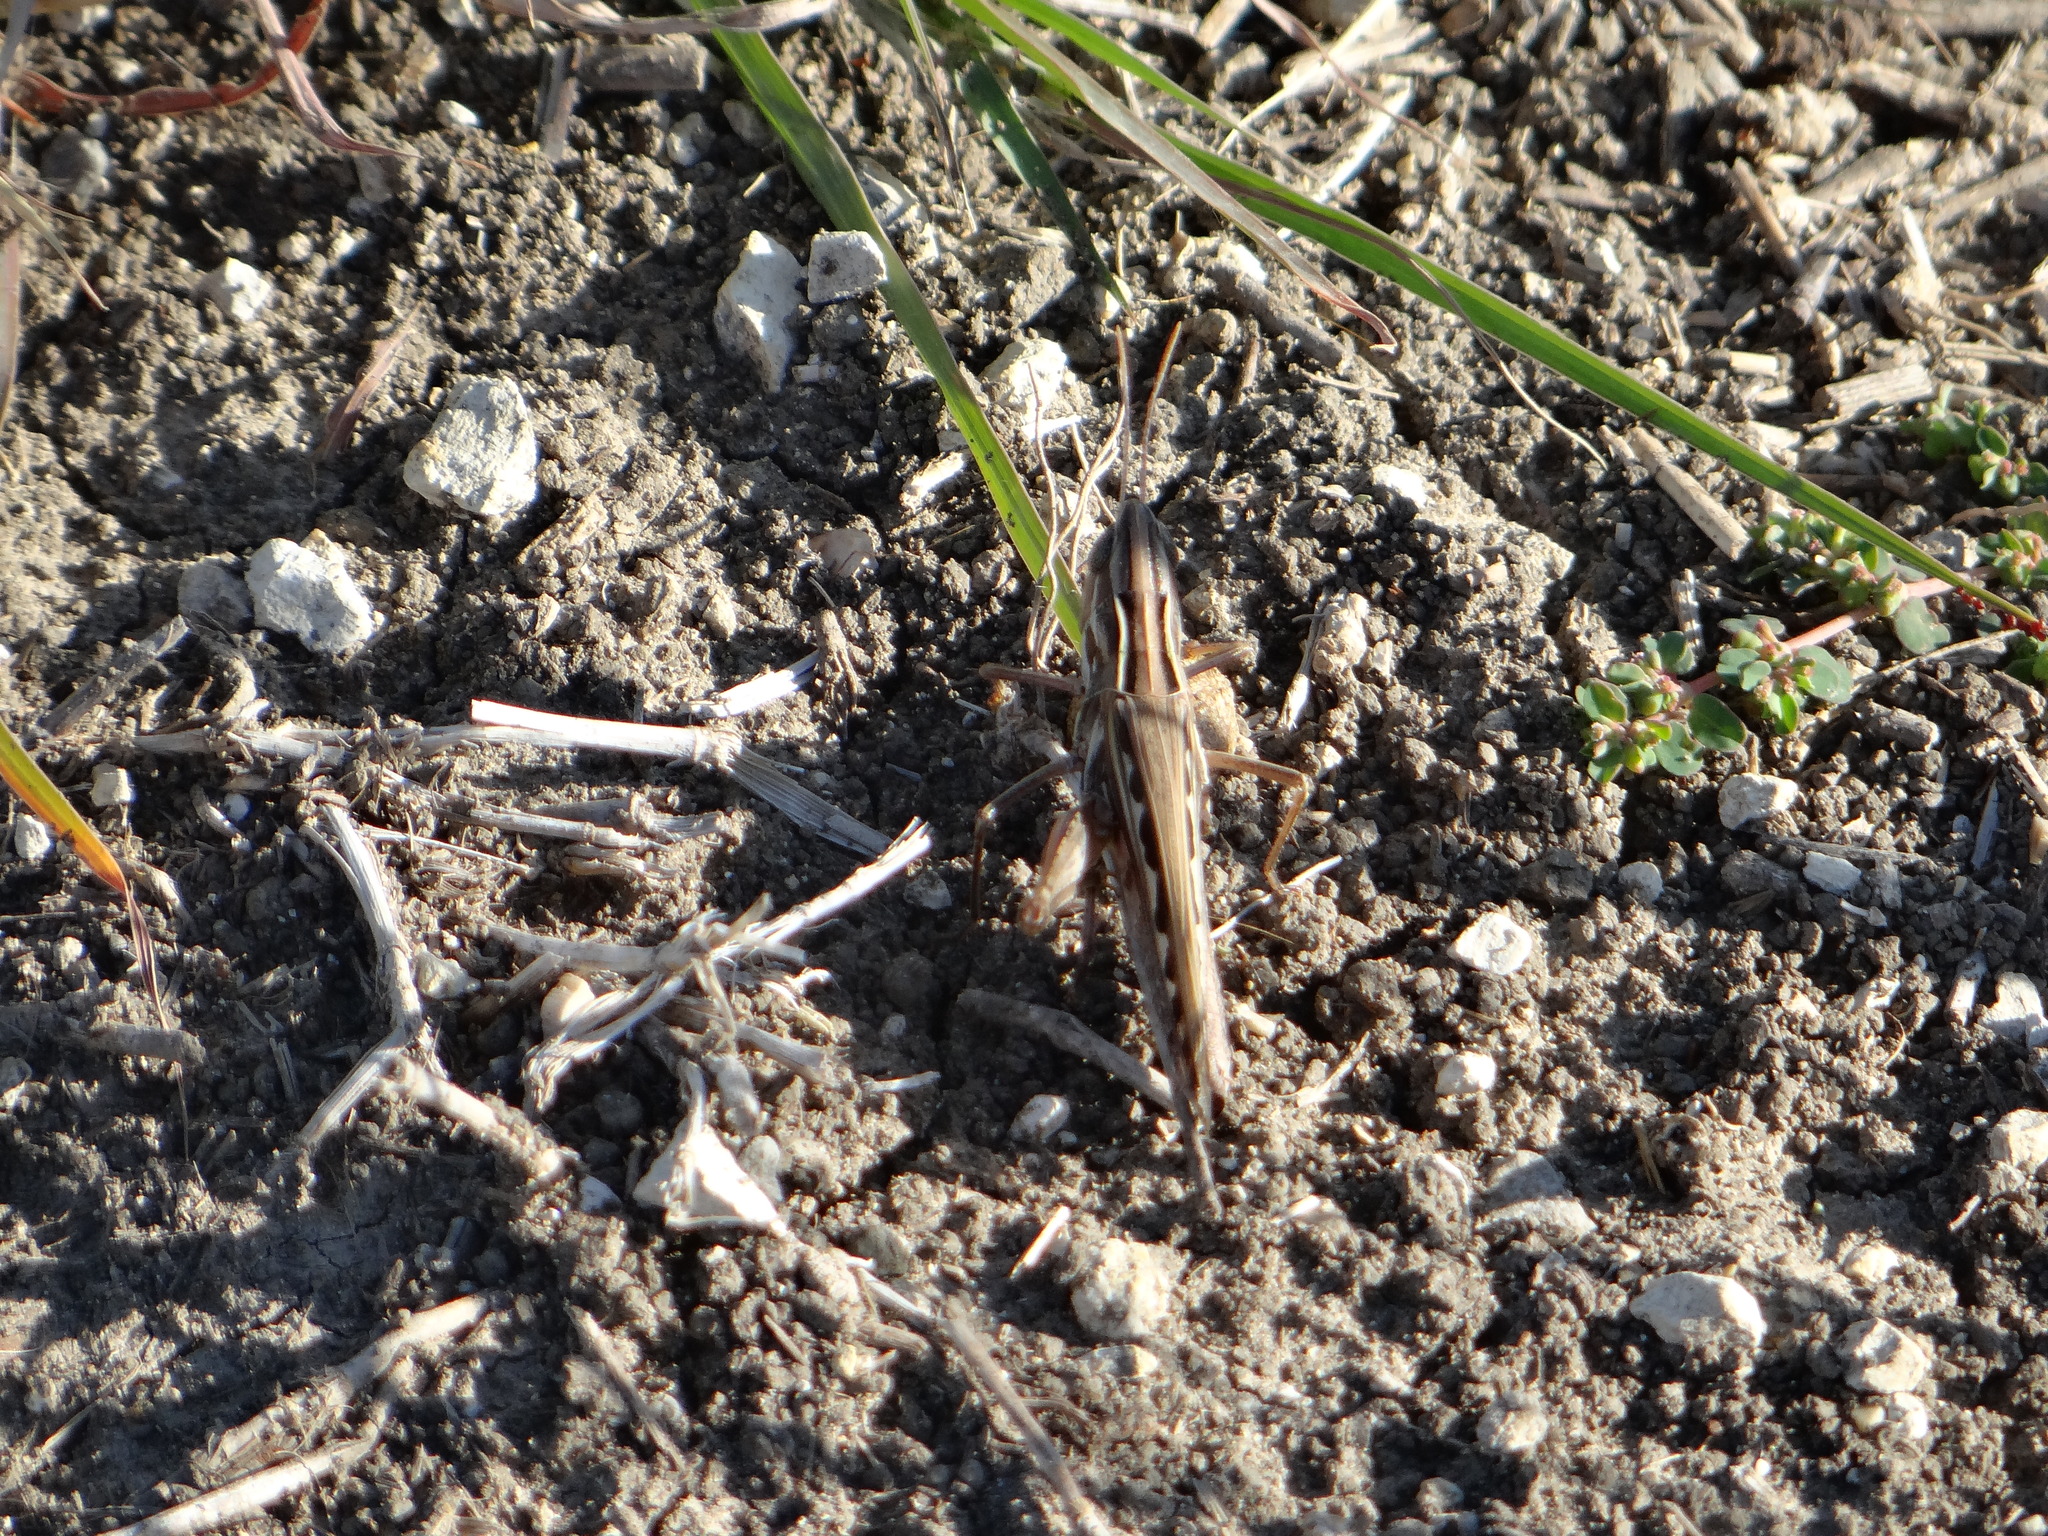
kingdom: Animalia
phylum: Arthropoda
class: Insecta
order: Orthoptera
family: Acrididae
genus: Syrbula
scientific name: Syrbula admirabilis
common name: Handsome grasshopper
